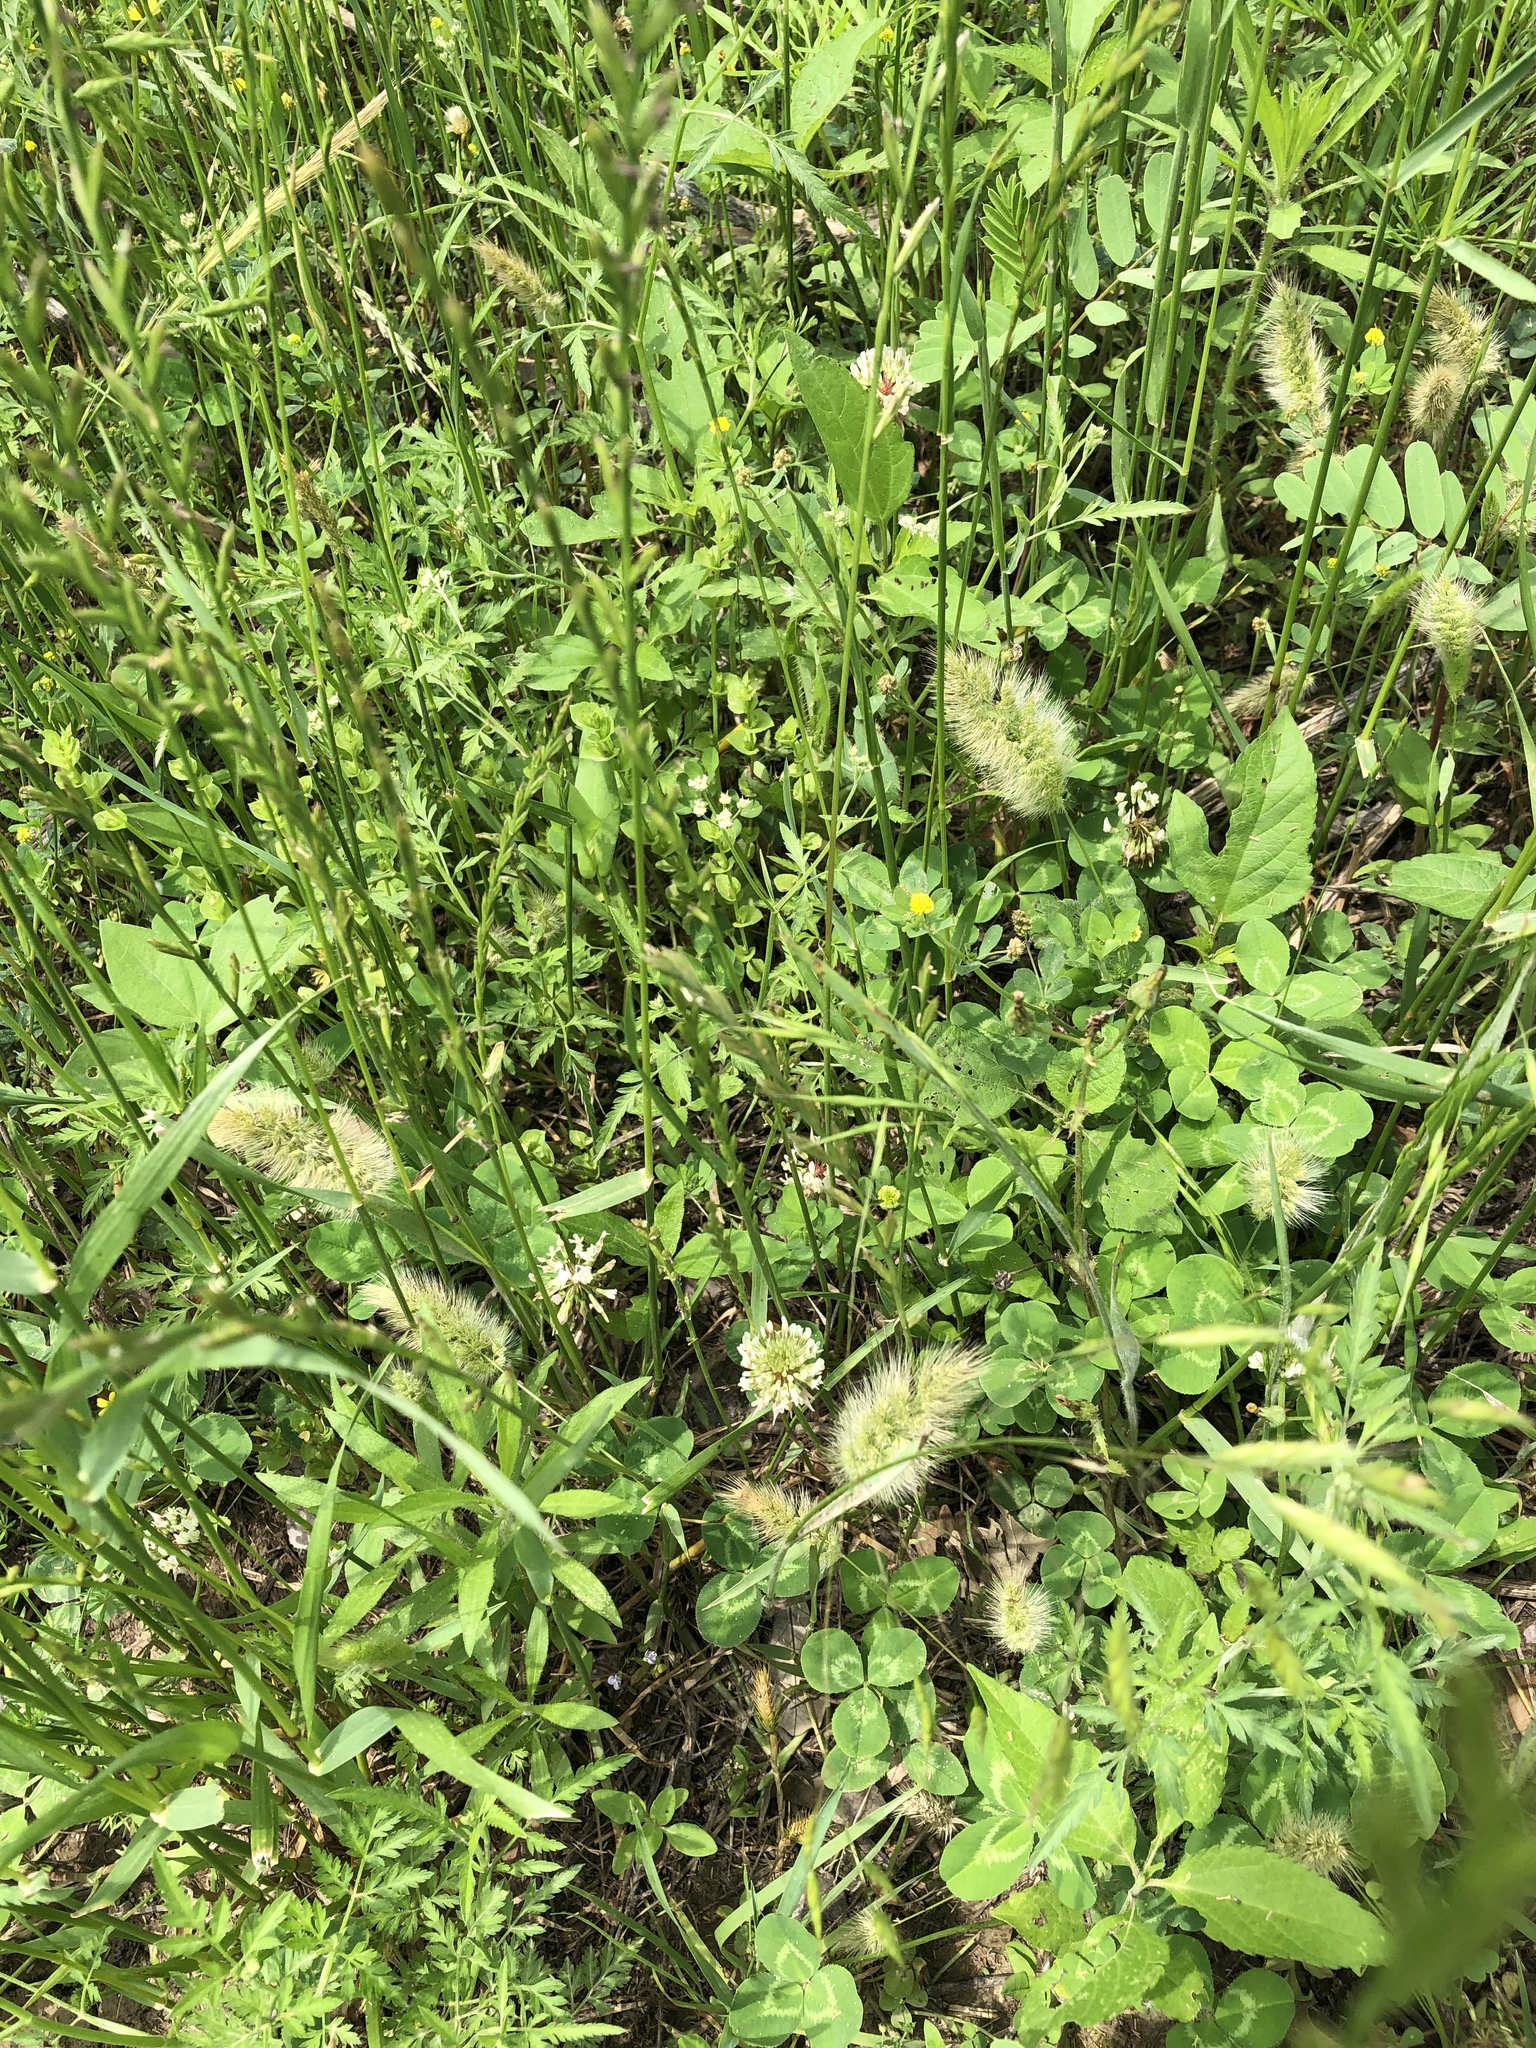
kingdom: Plantae
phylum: Tracheophyta
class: Liliopsida
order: Poales
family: Poaceae
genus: Polypogon
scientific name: Polypogon monspeliensis
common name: Annual rabbitsfoot grass
